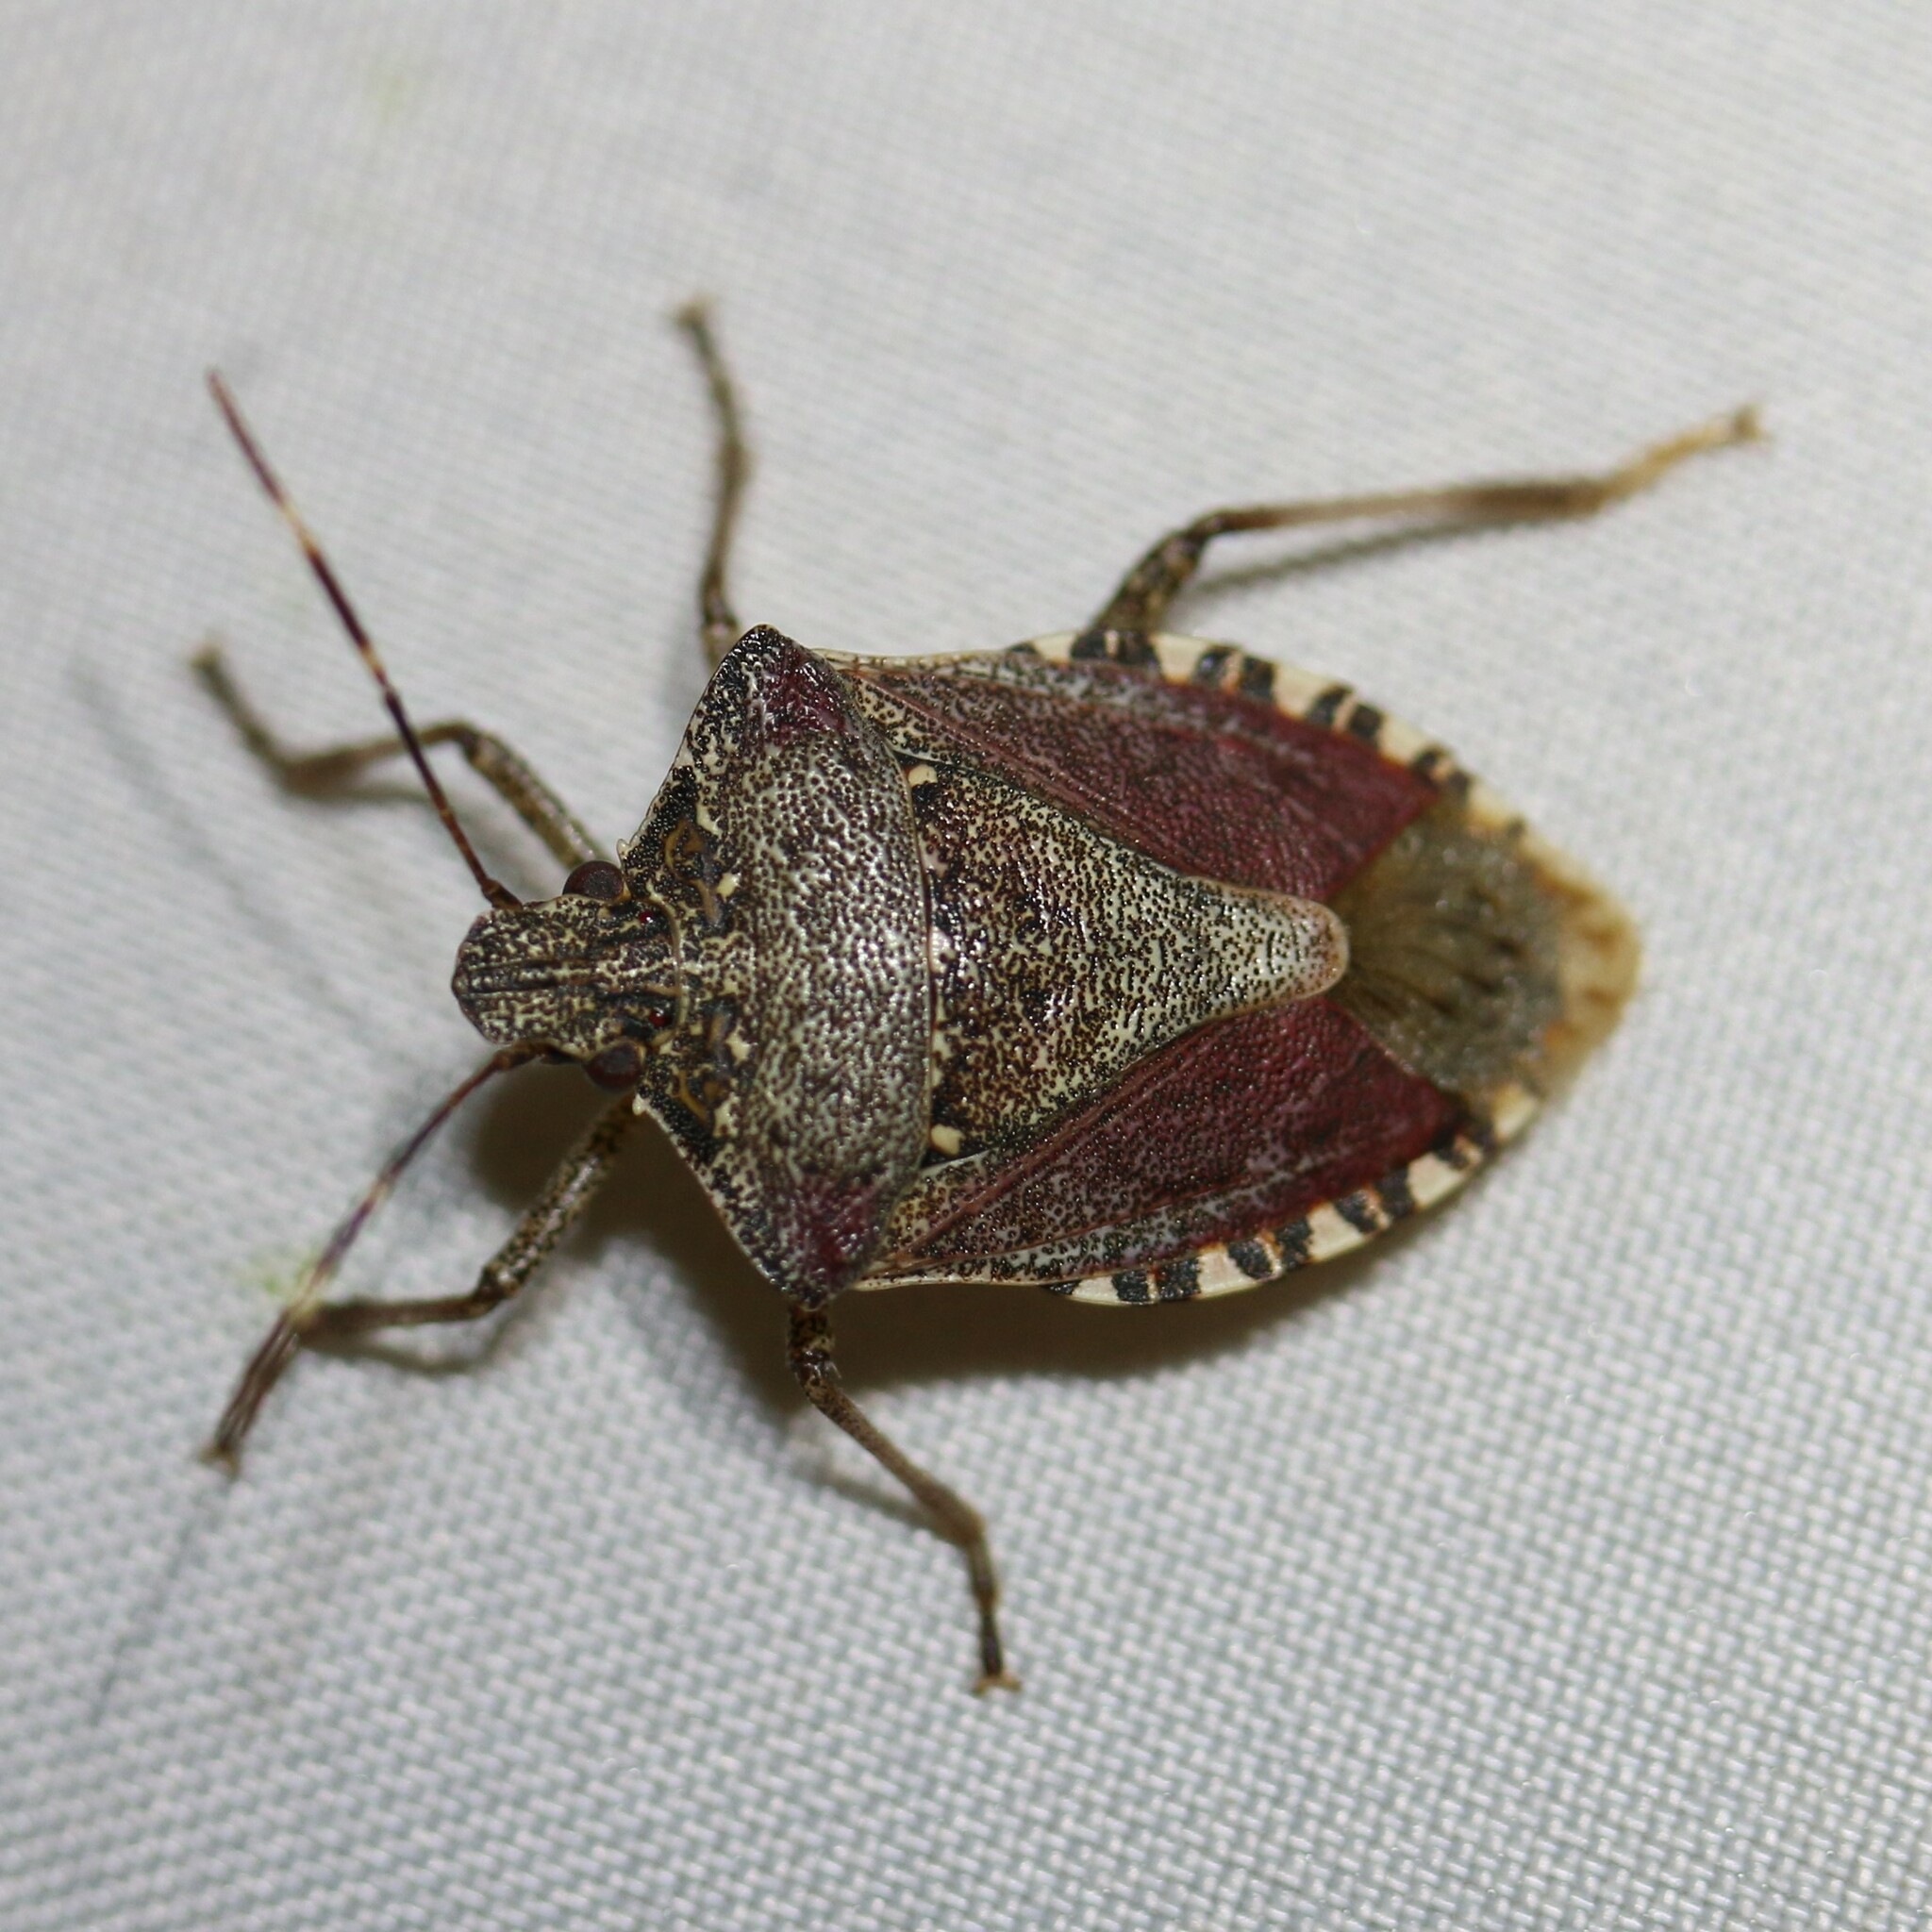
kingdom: Animalia
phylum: Arthropoda
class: Insecta
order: Hemiptera
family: Pentatomidae
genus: Halyomorpha
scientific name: Halyomorpha halys
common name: Brown marmorated stink bug
